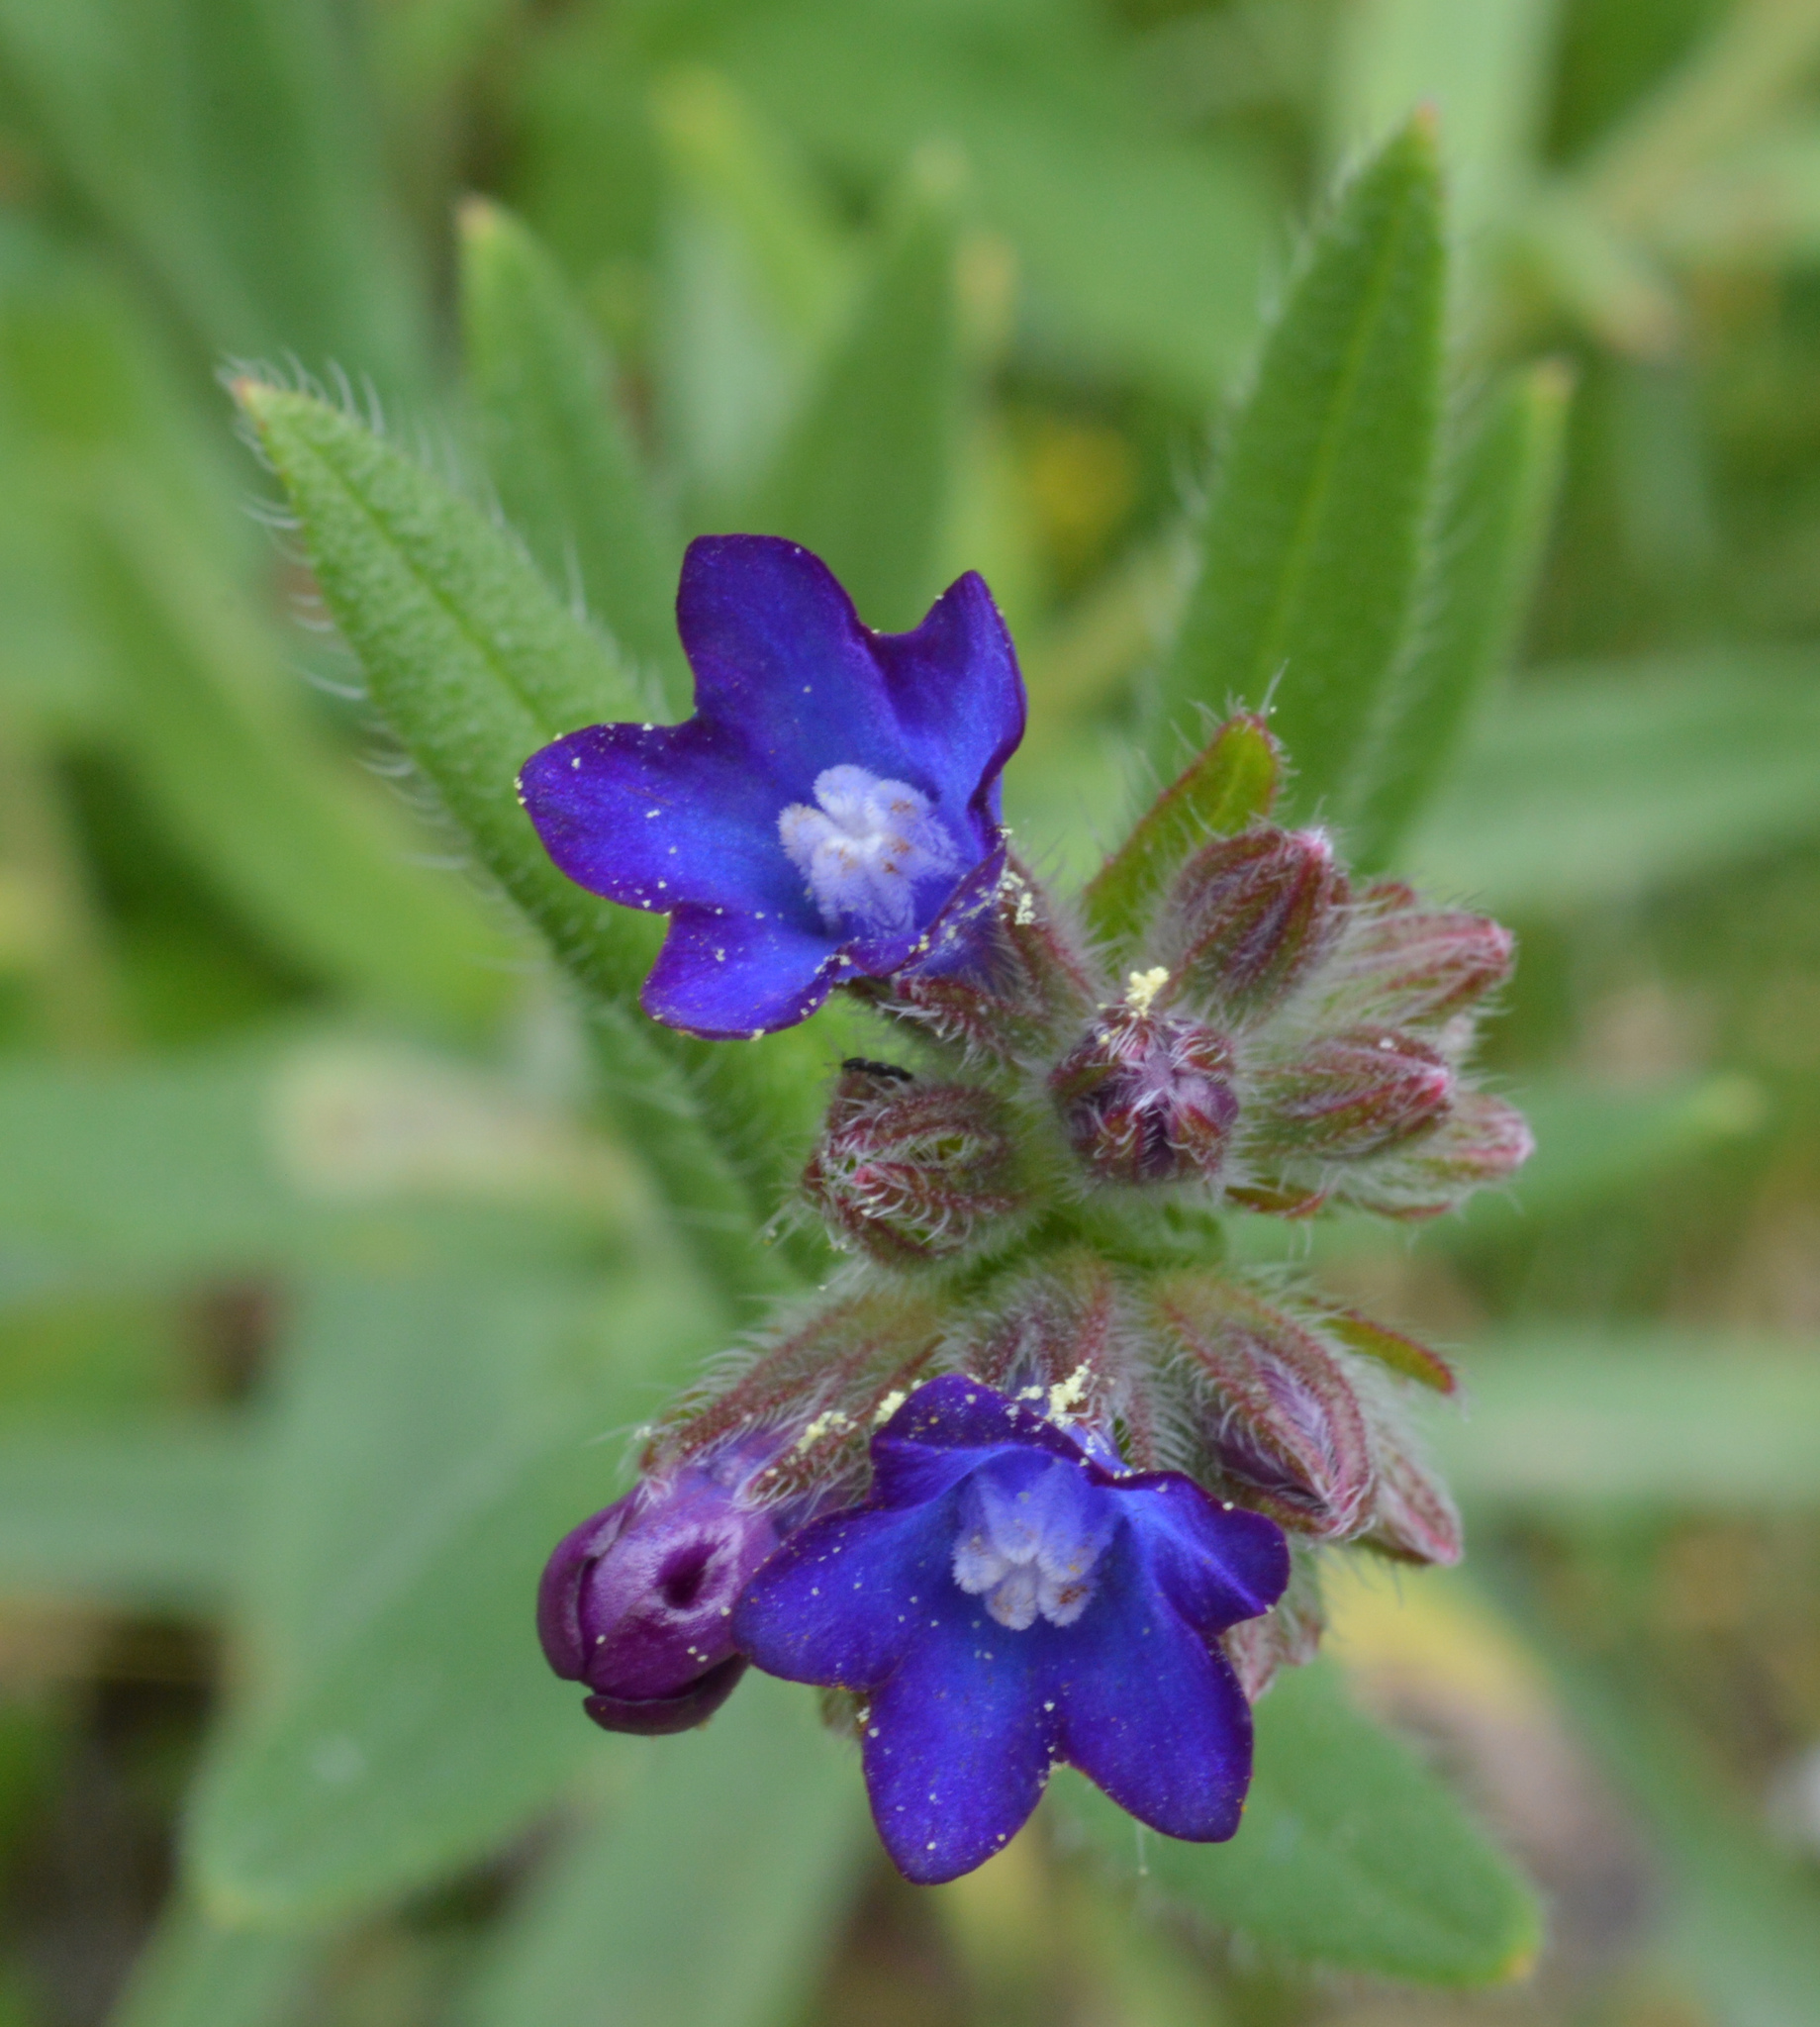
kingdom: Plantae
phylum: Tracheophyta
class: Magnoliopsida
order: Boraginales
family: Boraginaceae
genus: Anchusa
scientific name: Anchusa officinalis
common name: Alkanet
